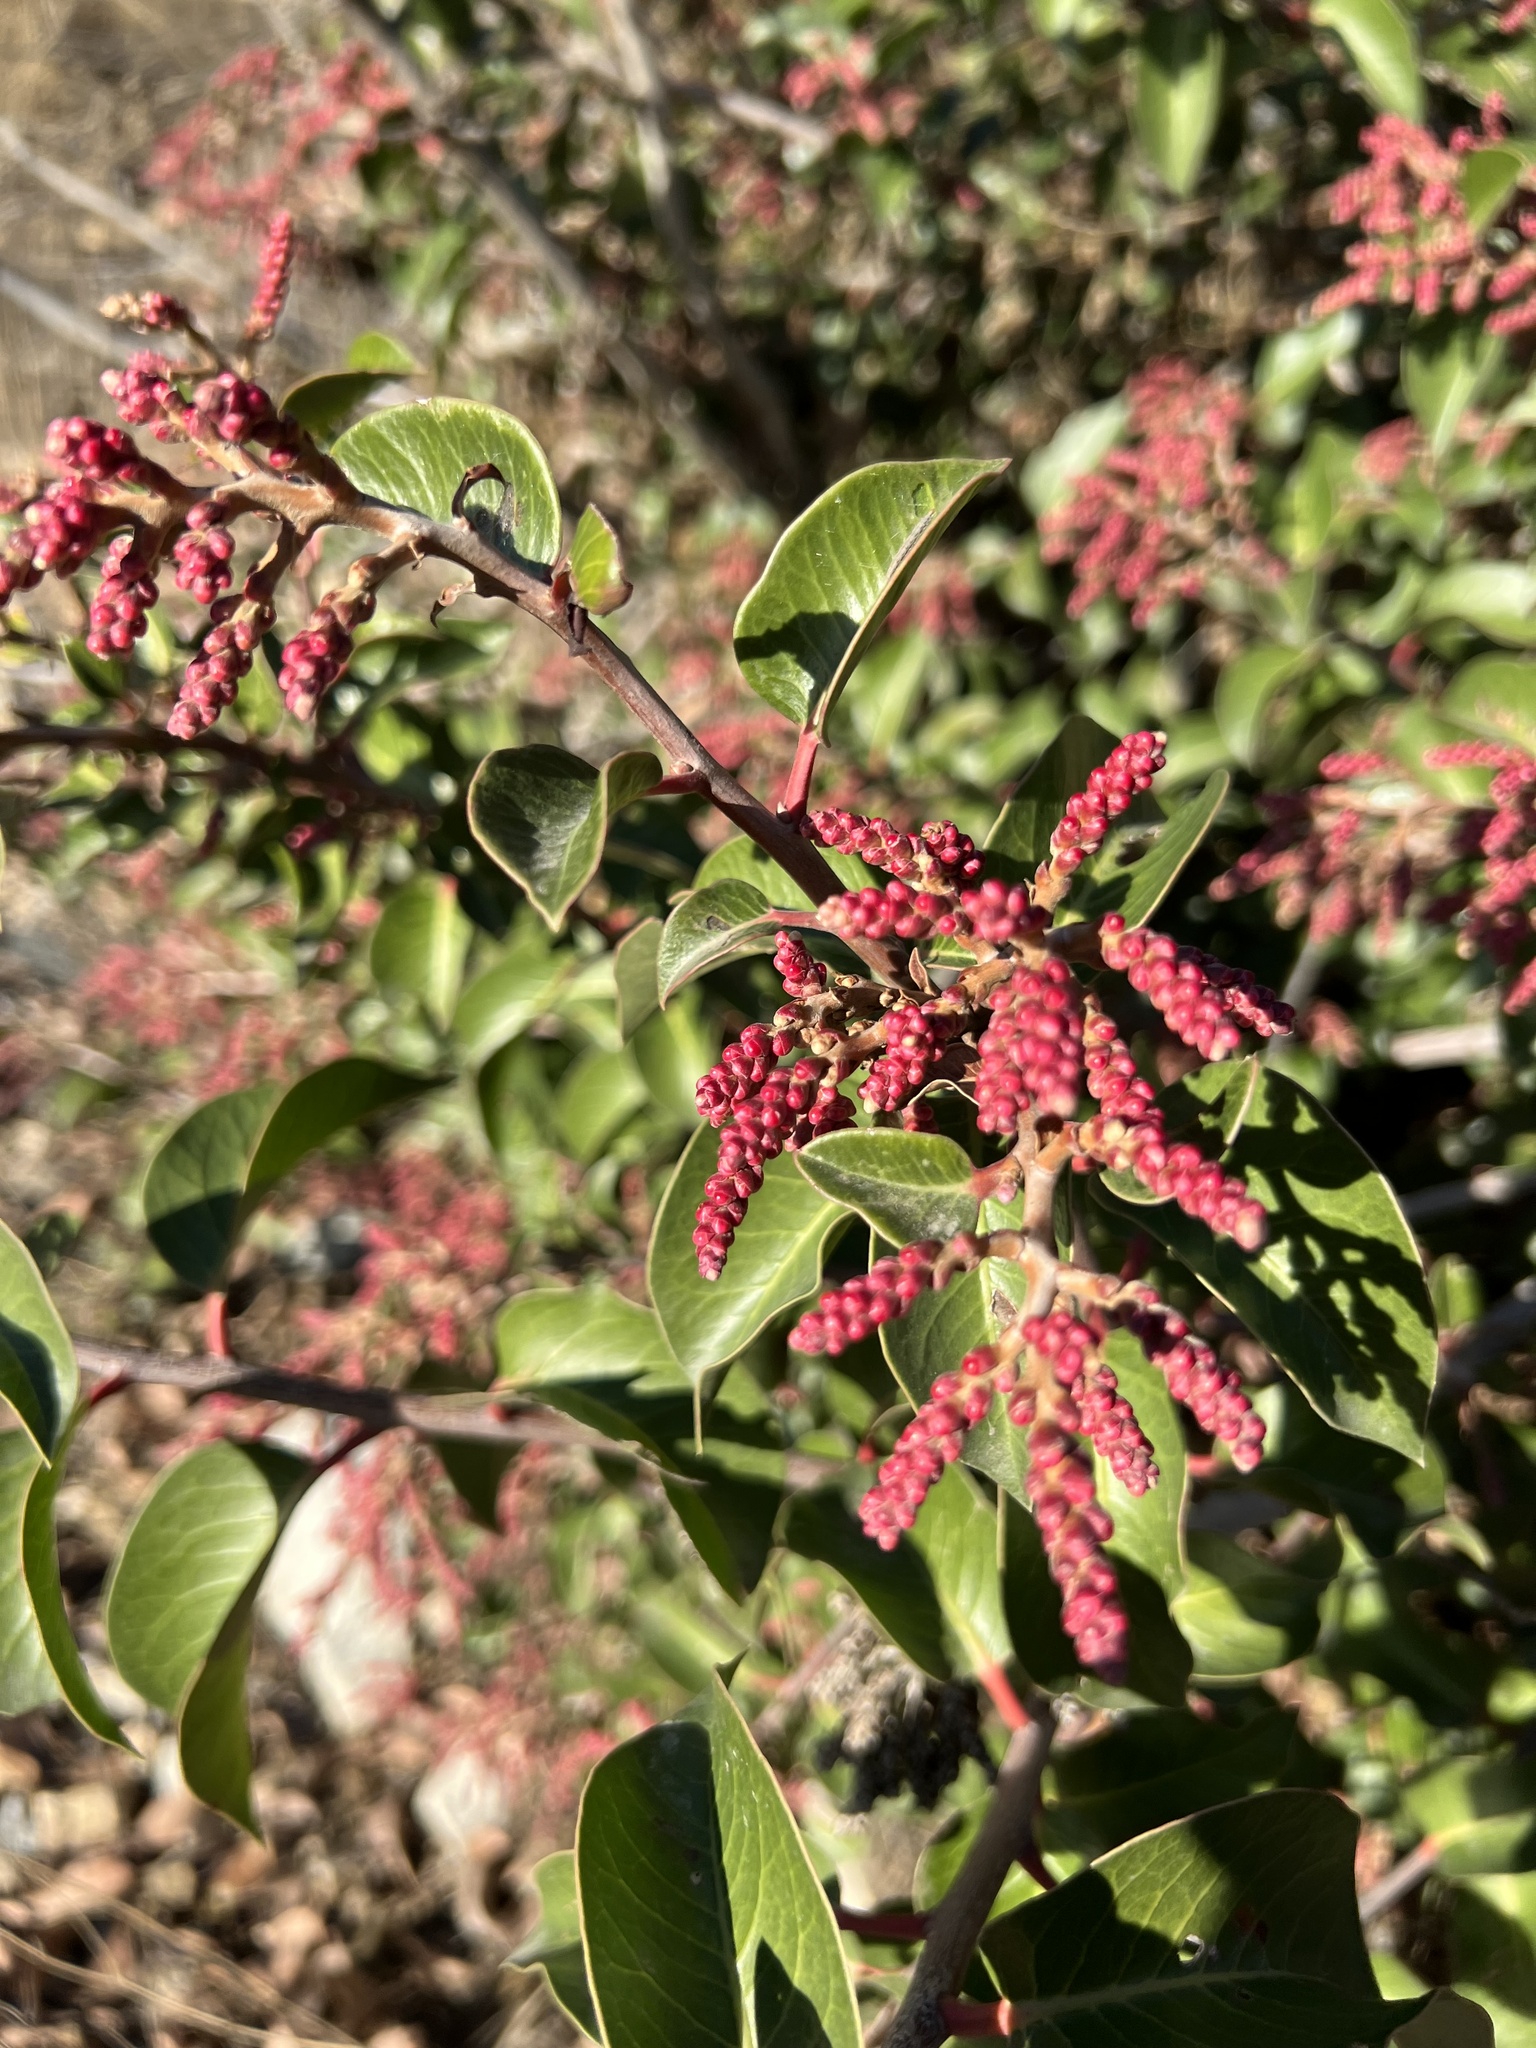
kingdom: Plantae
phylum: Tracheophyta
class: Magnoliopsida
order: Sapindales
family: Anacardiaceae
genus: Rhus
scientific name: Rhus ovata
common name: Sugar sumac
